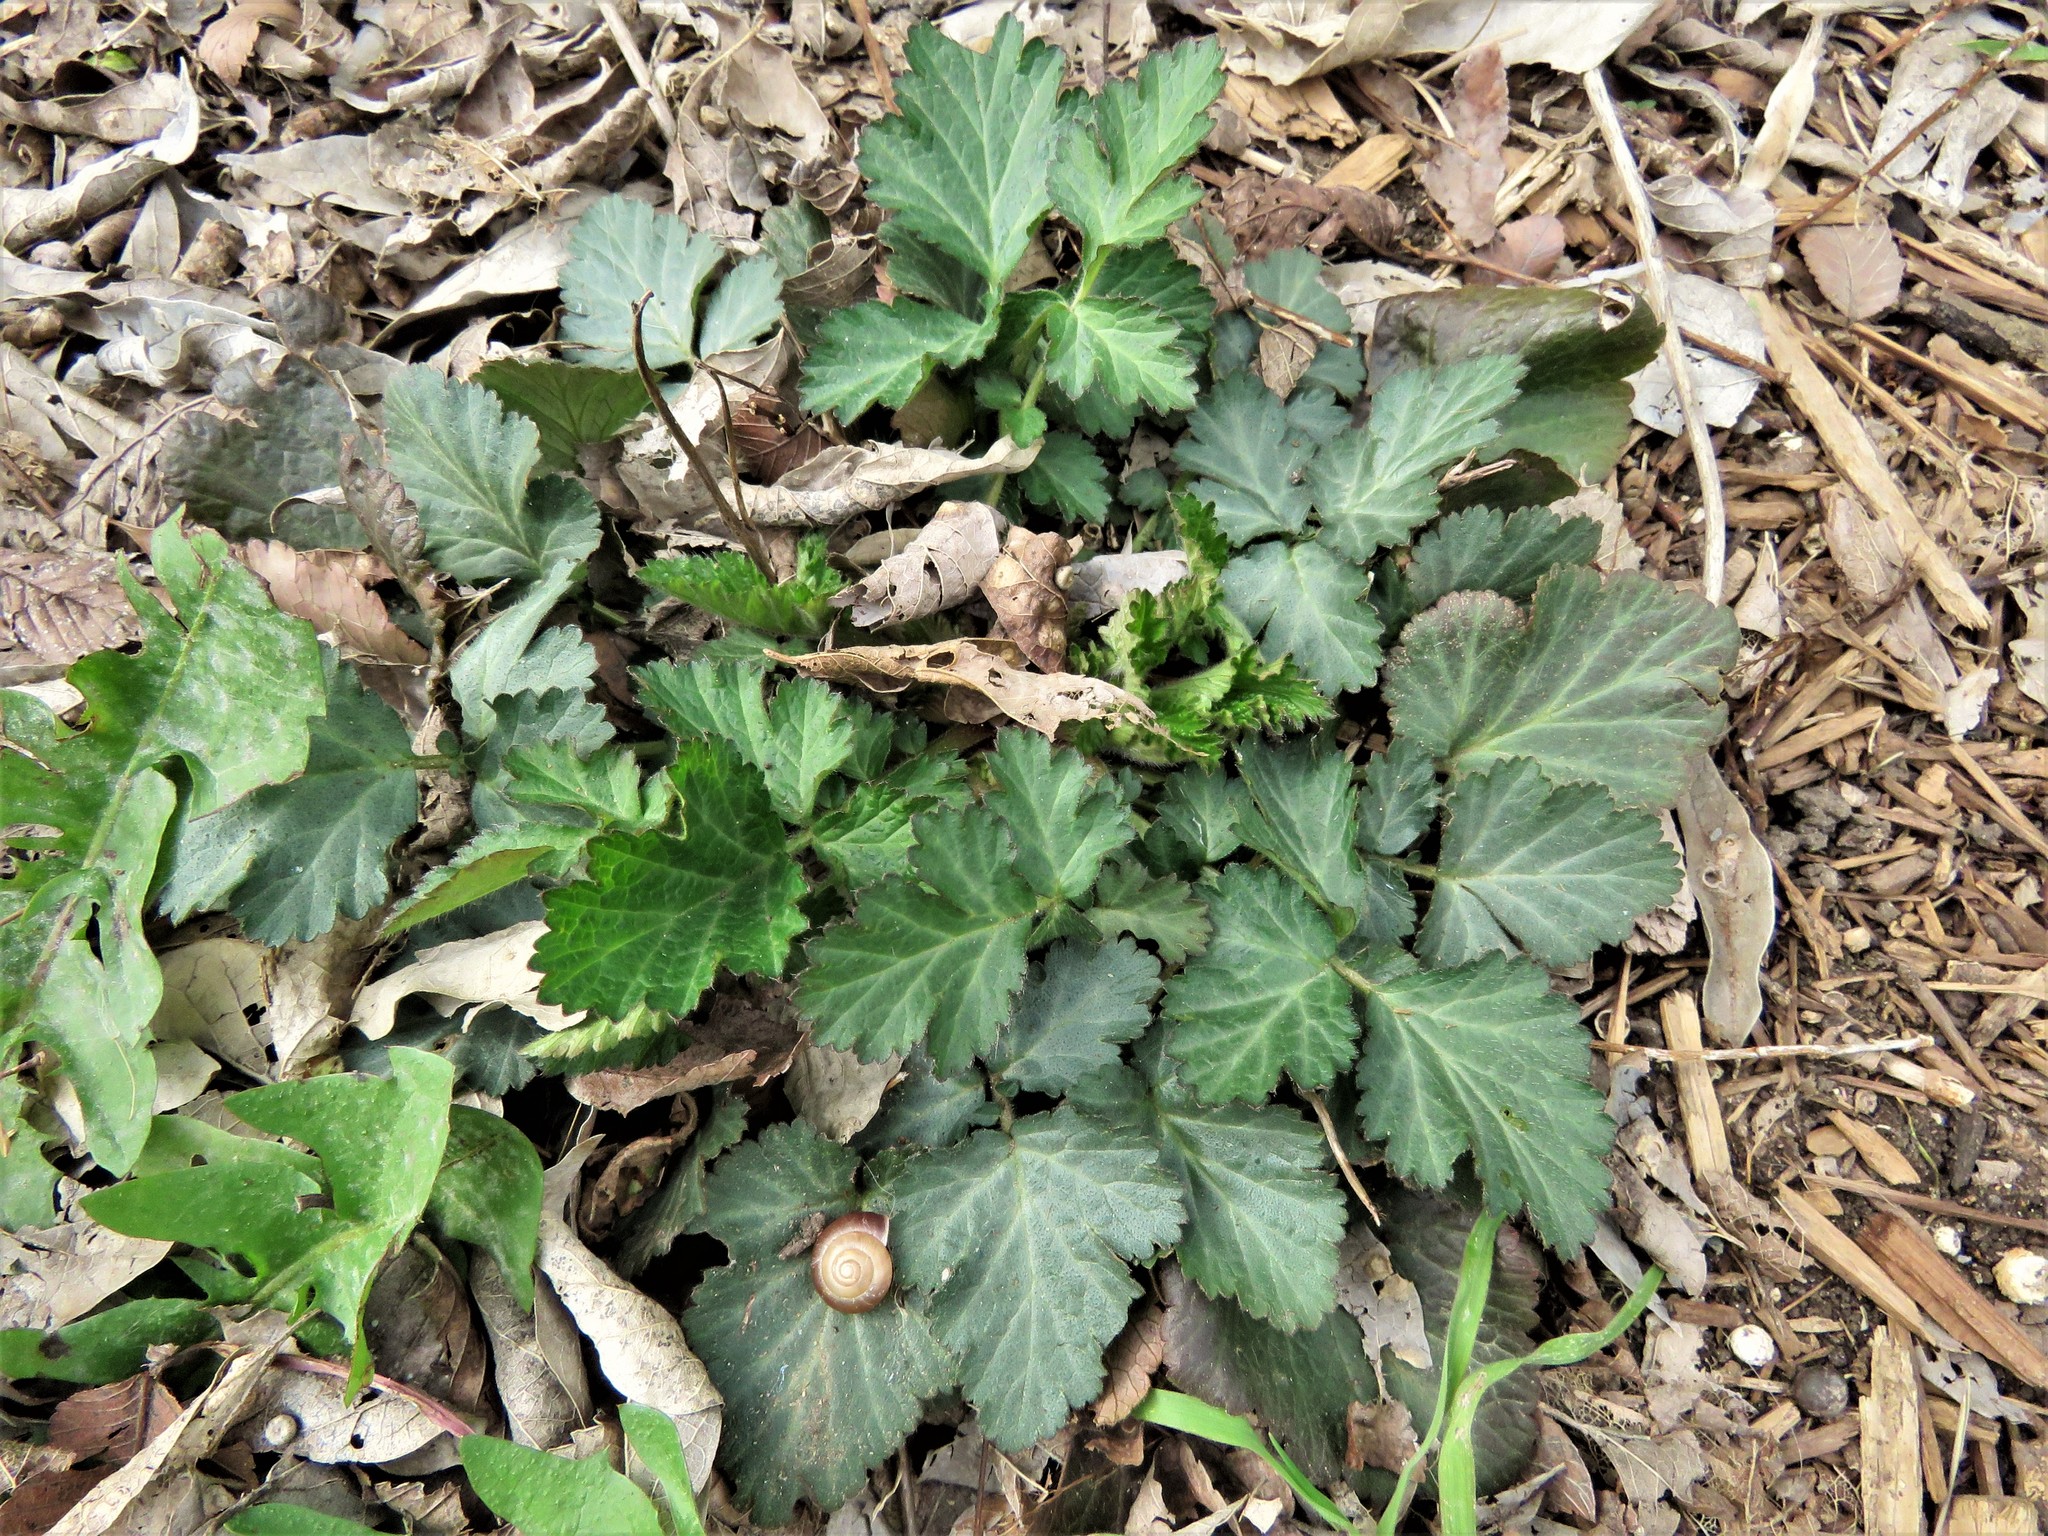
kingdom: Plantae
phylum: Tracheophyta
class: Magnoliopsida
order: Rosales
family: Rosaceae
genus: Geum
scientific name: Geum canadense
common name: White avens
